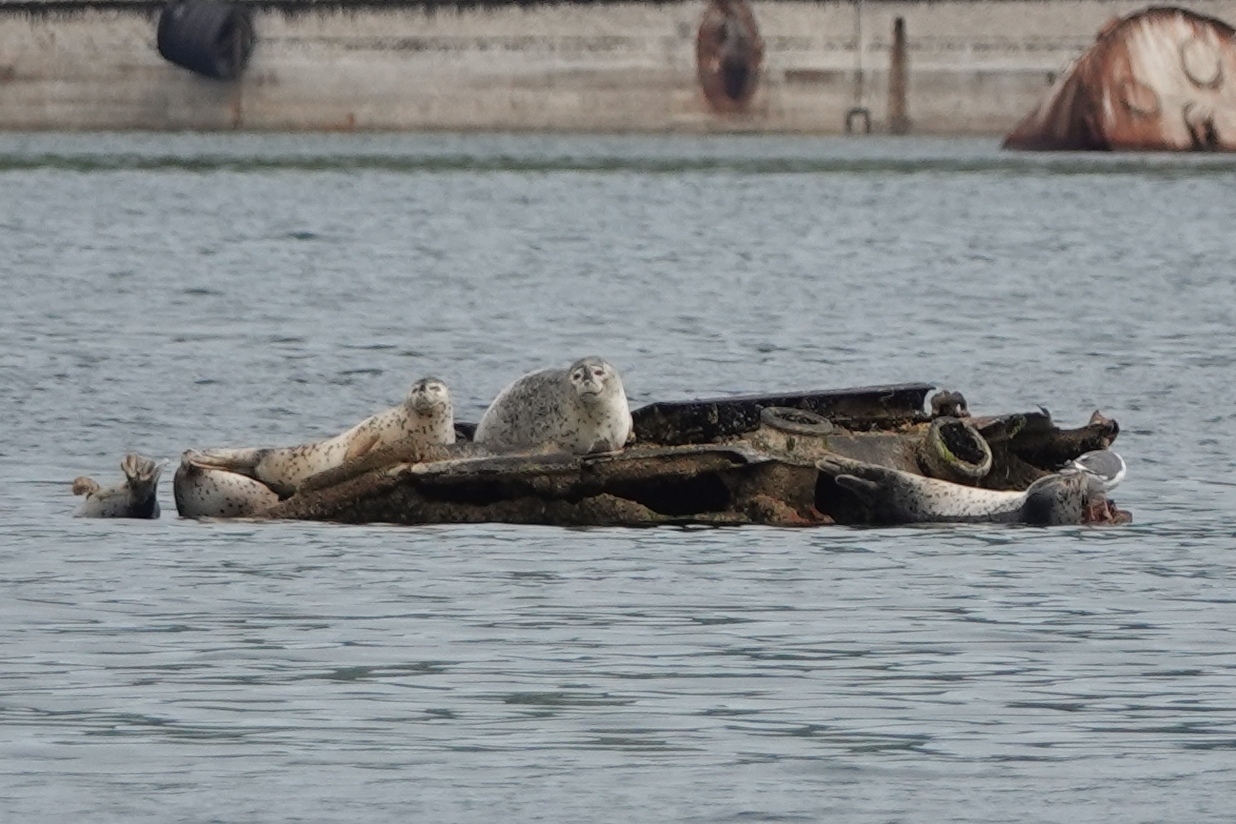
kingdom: Animalia
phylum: Chordata
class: Mammalia
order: Carnivora
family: Phocidae
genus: Phoca
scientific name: Phoca largha
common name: Spotted seal
